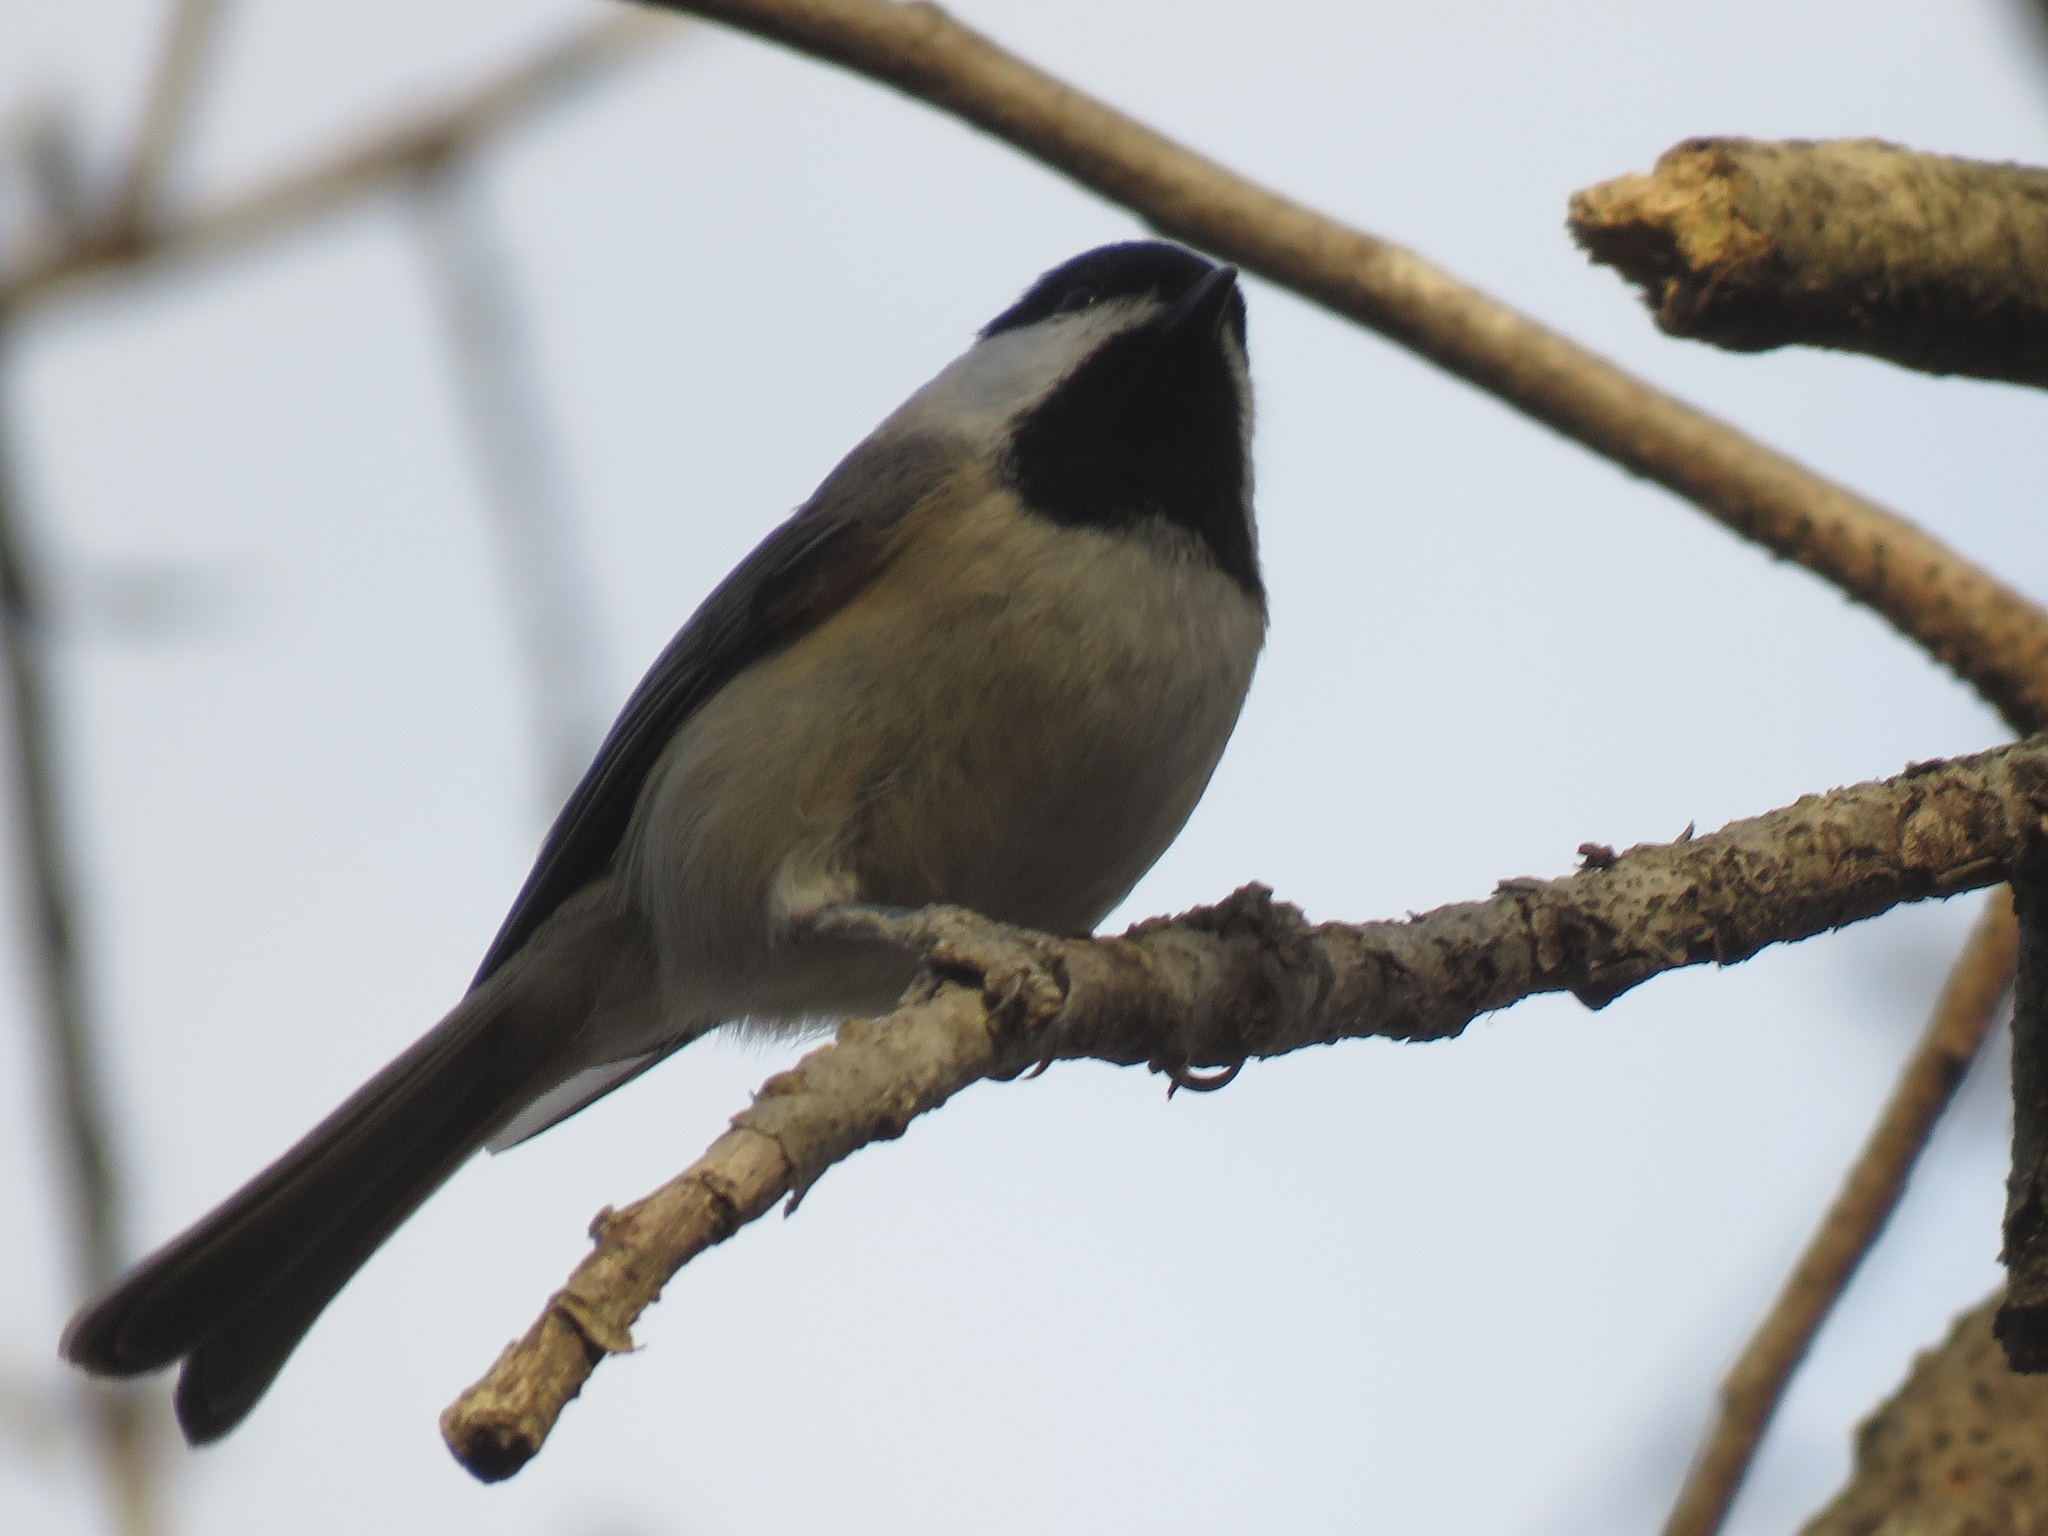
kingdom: Animalia
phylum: Chordata
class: Aves
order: Passeriformes
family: Paridae
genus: Poecile
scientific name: Poecile carolinensis
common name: Carolina chickadee
